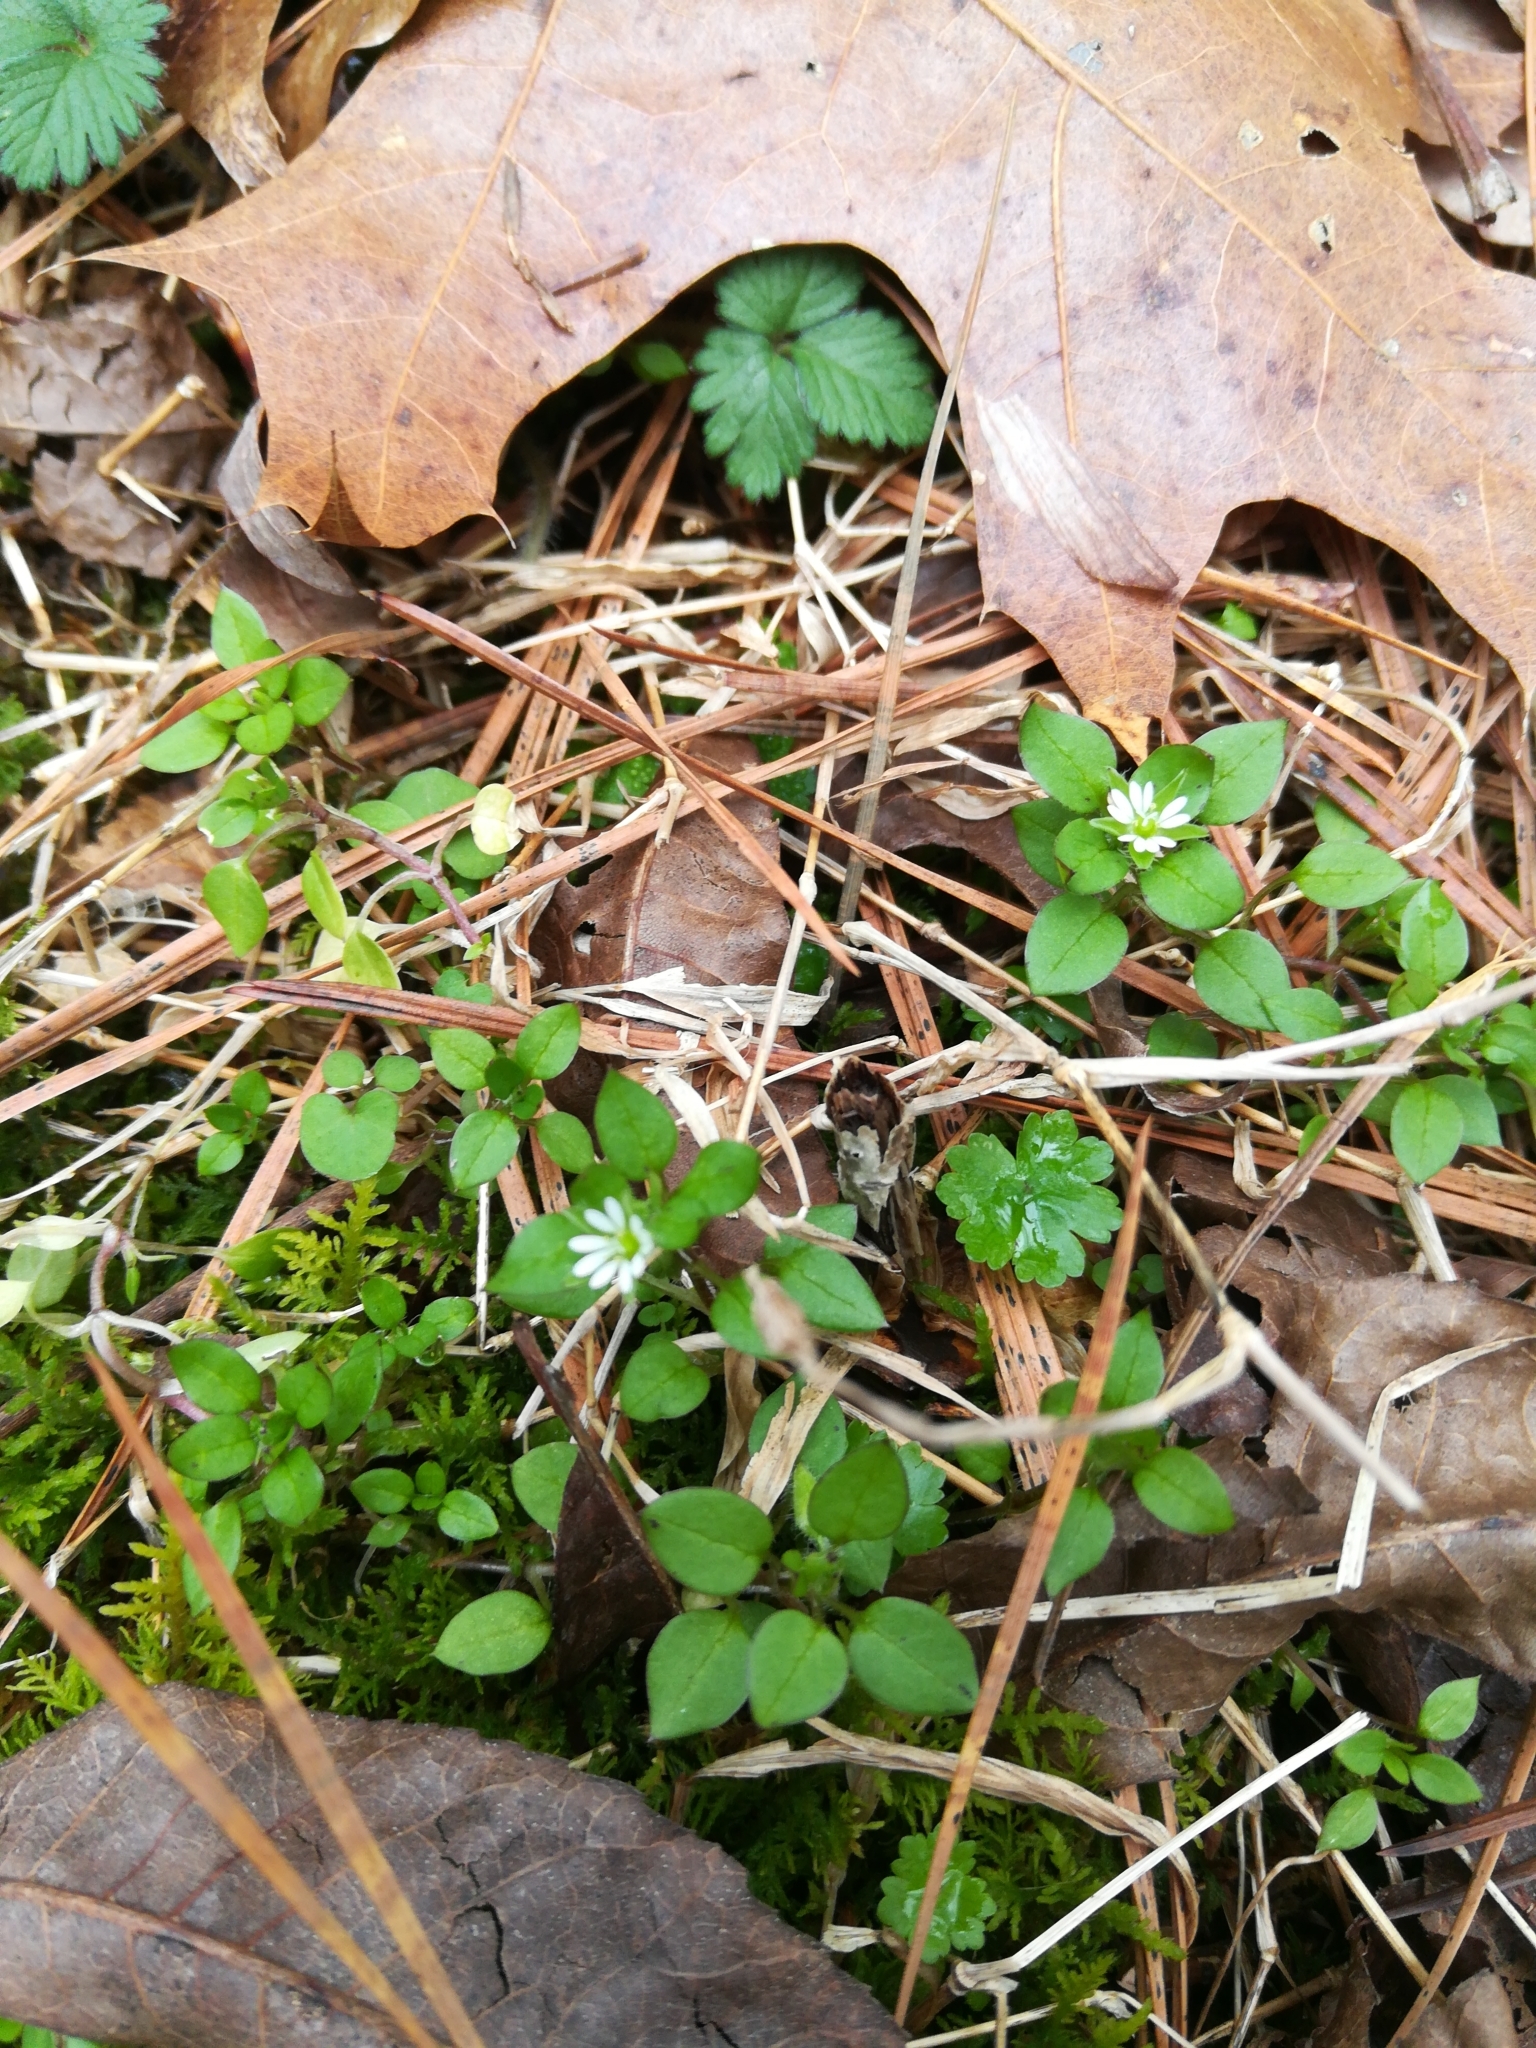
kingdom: Plantae
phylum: Tracheophyta
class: Magnoliopsida
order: Caryophyllales
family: Caryophyllaceae
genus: Stellaria
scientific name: Stellaria media
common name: Common chickweed
